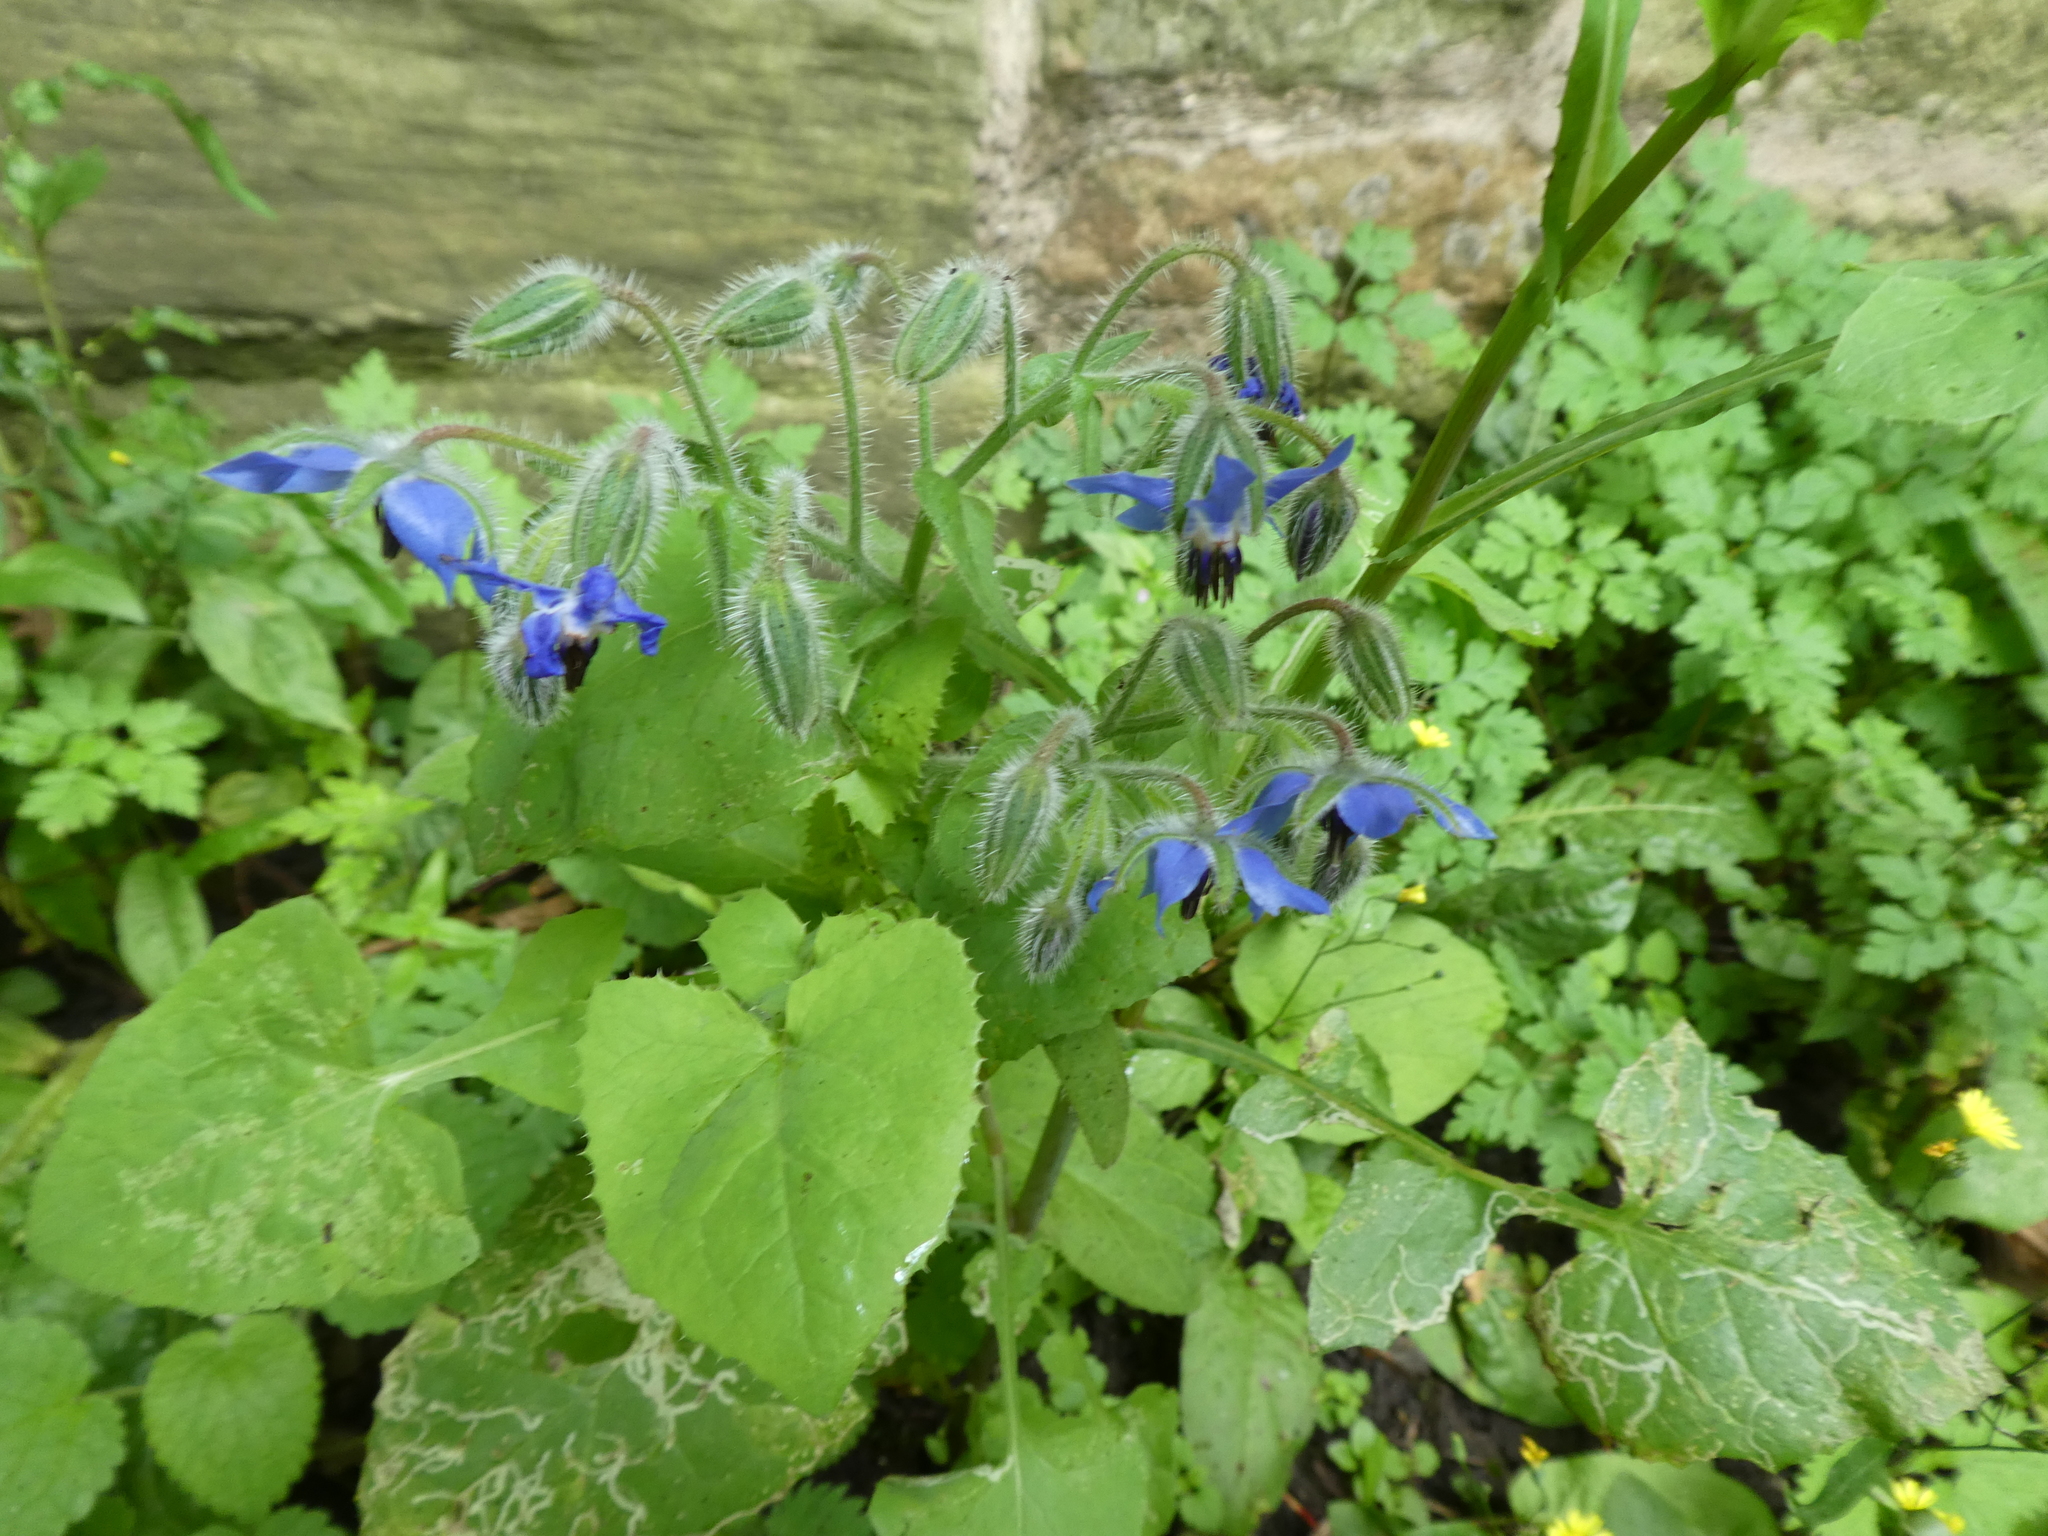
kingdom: Plantae
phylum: Tracheophyta
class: Magnoliopsida
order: Boraginales
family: Boraginaceae
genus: Borago
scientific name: Borago officinalis
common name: Borage
